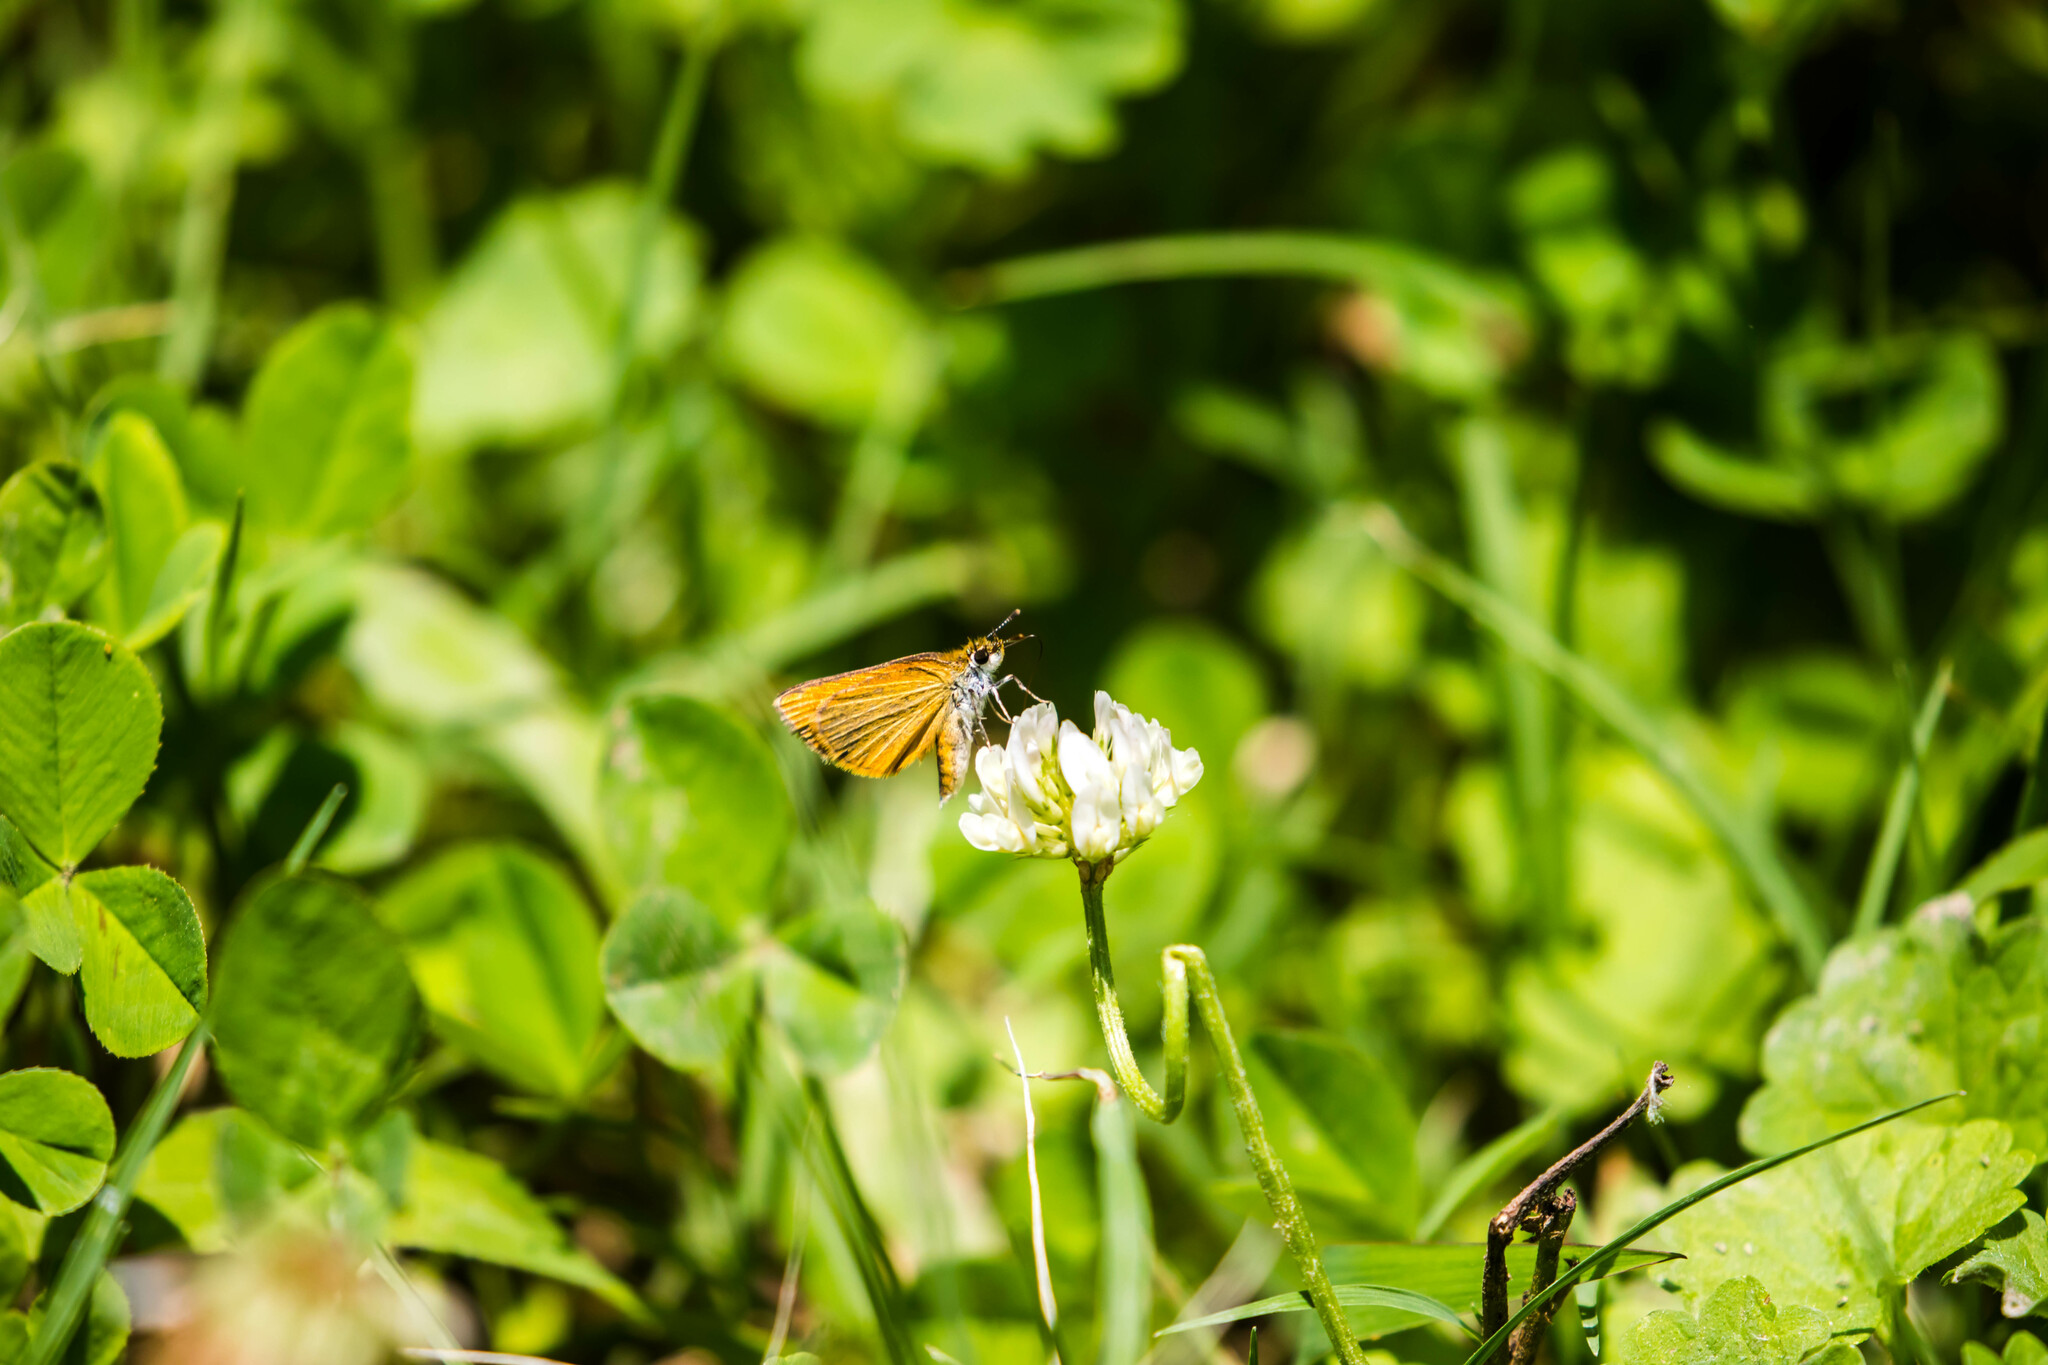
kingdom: Animalia
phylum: Arthropoda
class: Insecta
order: Lepidoptera
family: Hesperiidae
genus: Ancyloxypha
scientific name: Ancyloxypha numitor
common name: Least skipper
